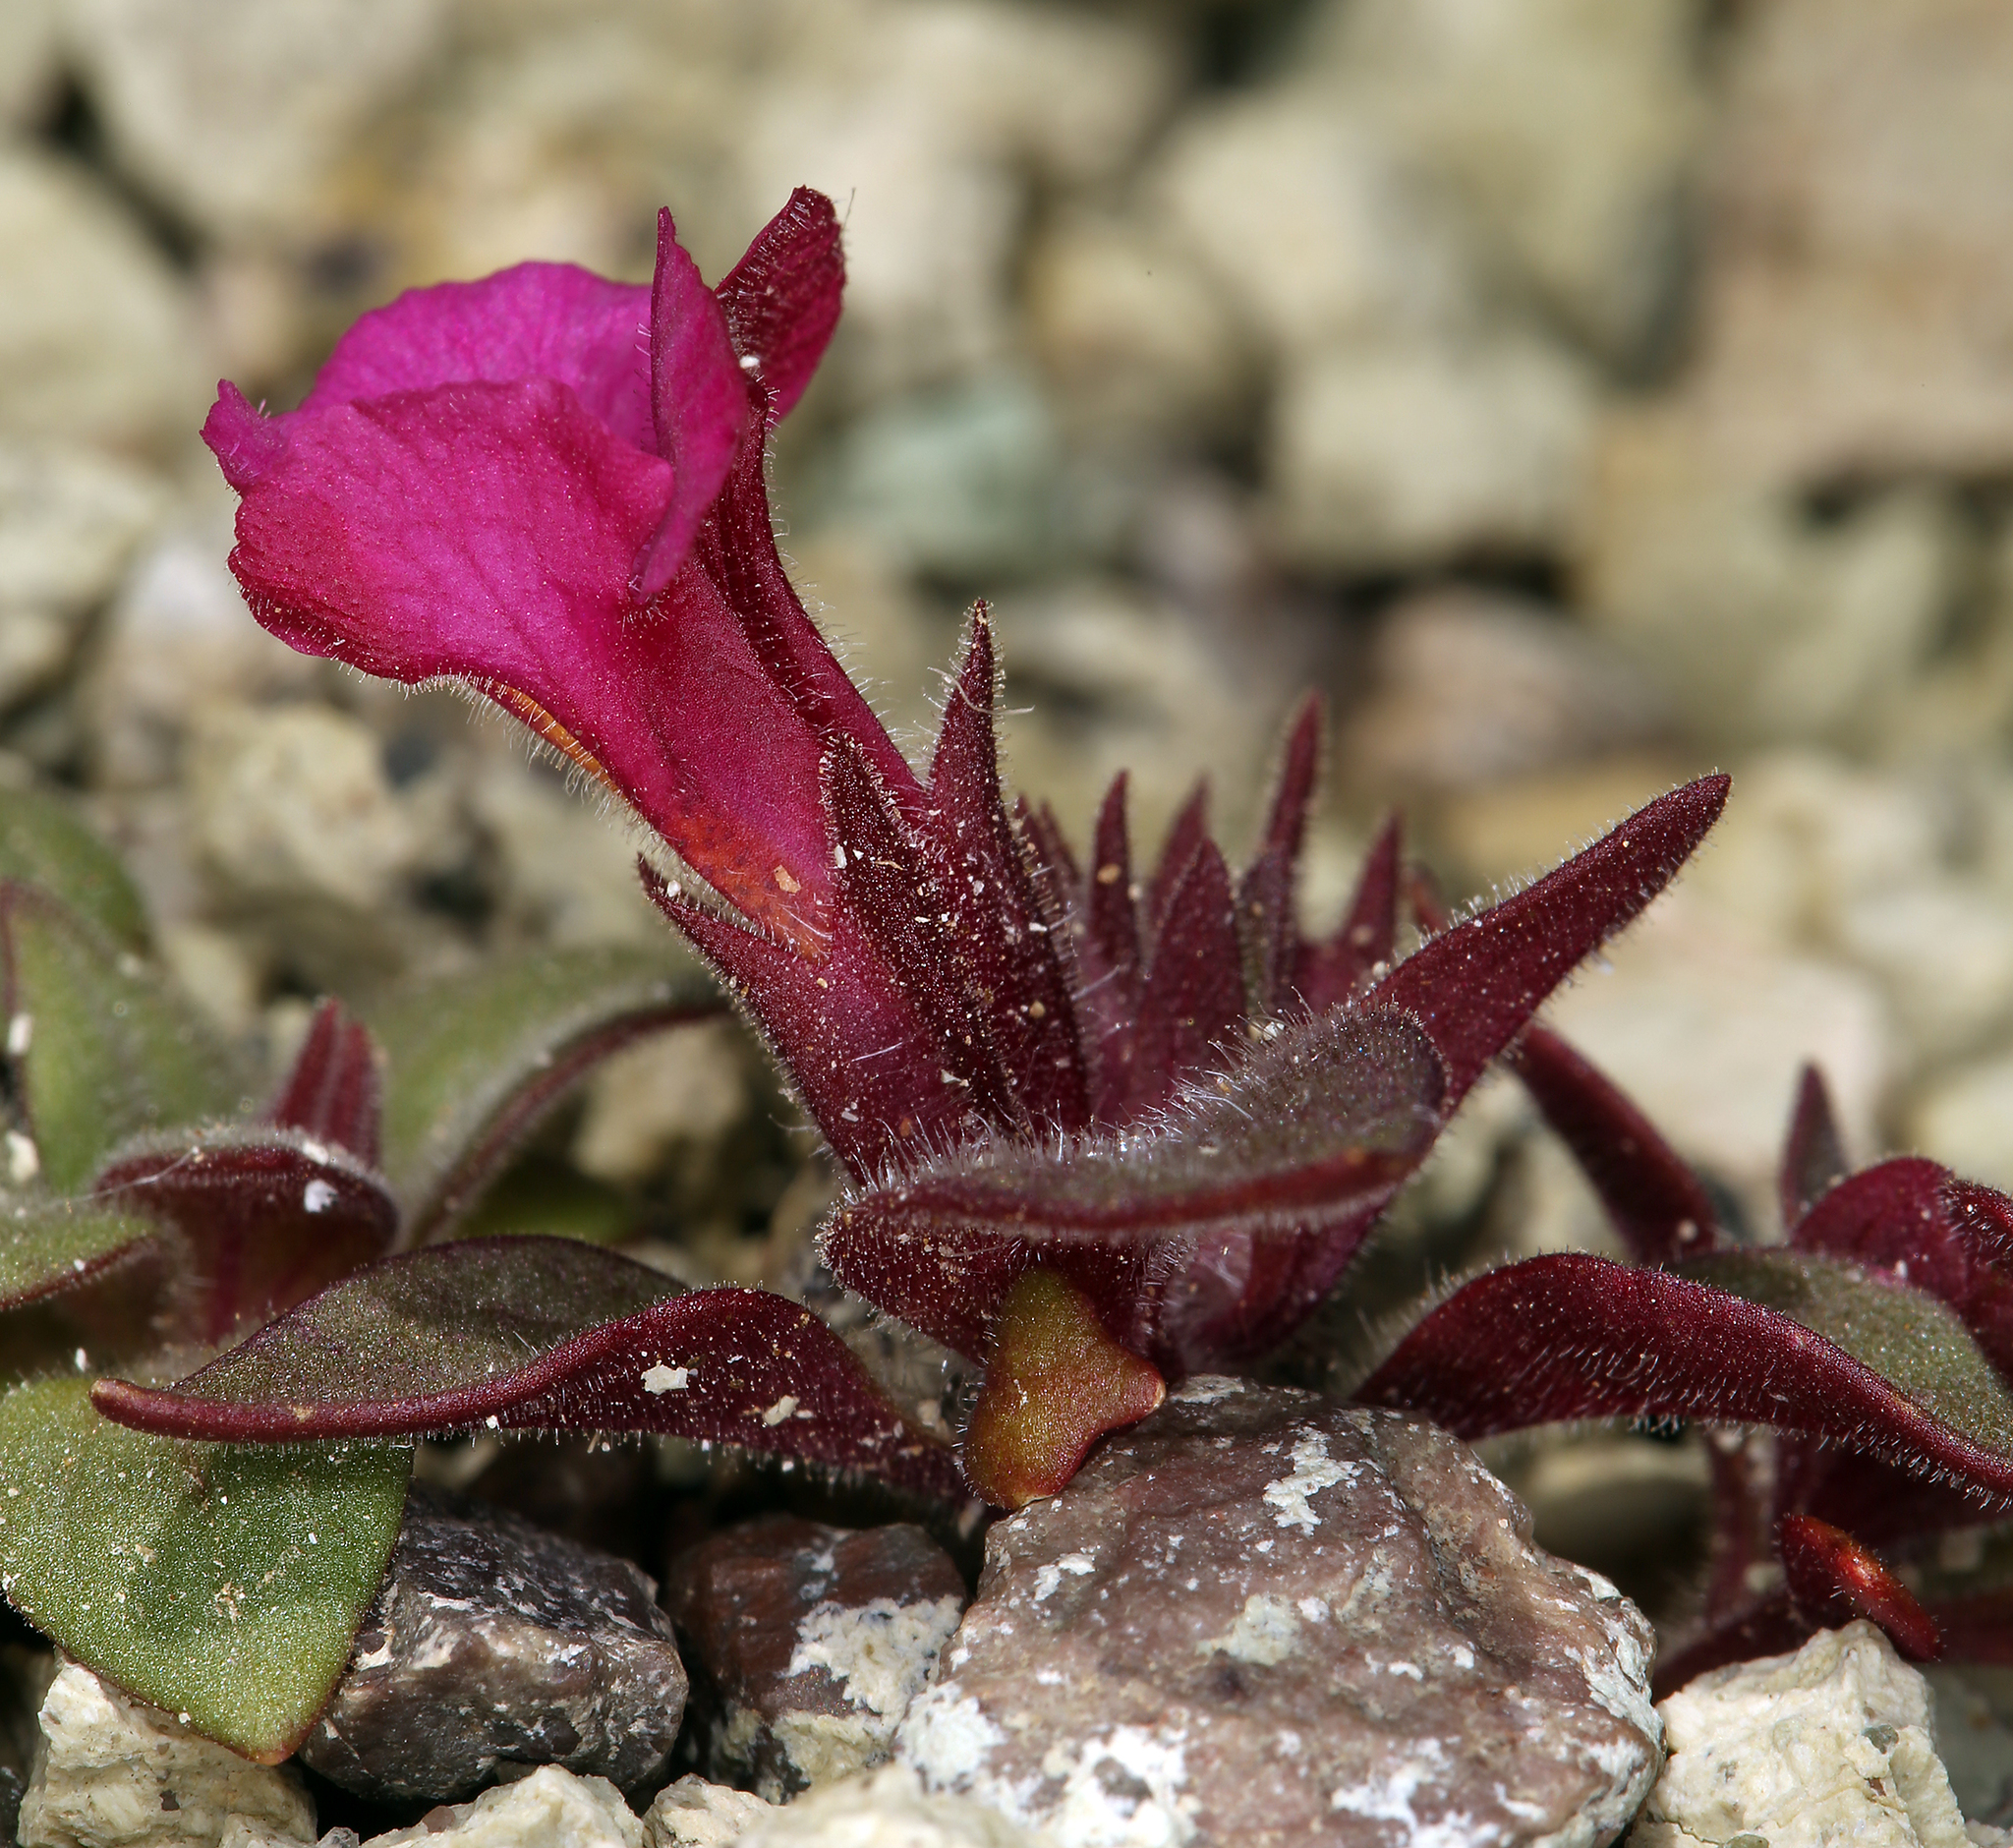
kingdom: Plantae
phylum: Tracheophyta
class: Magnoliopsida
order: Lamiales
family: Phrymaceae
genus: Diplacus
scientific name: Diplacus bigelovii
